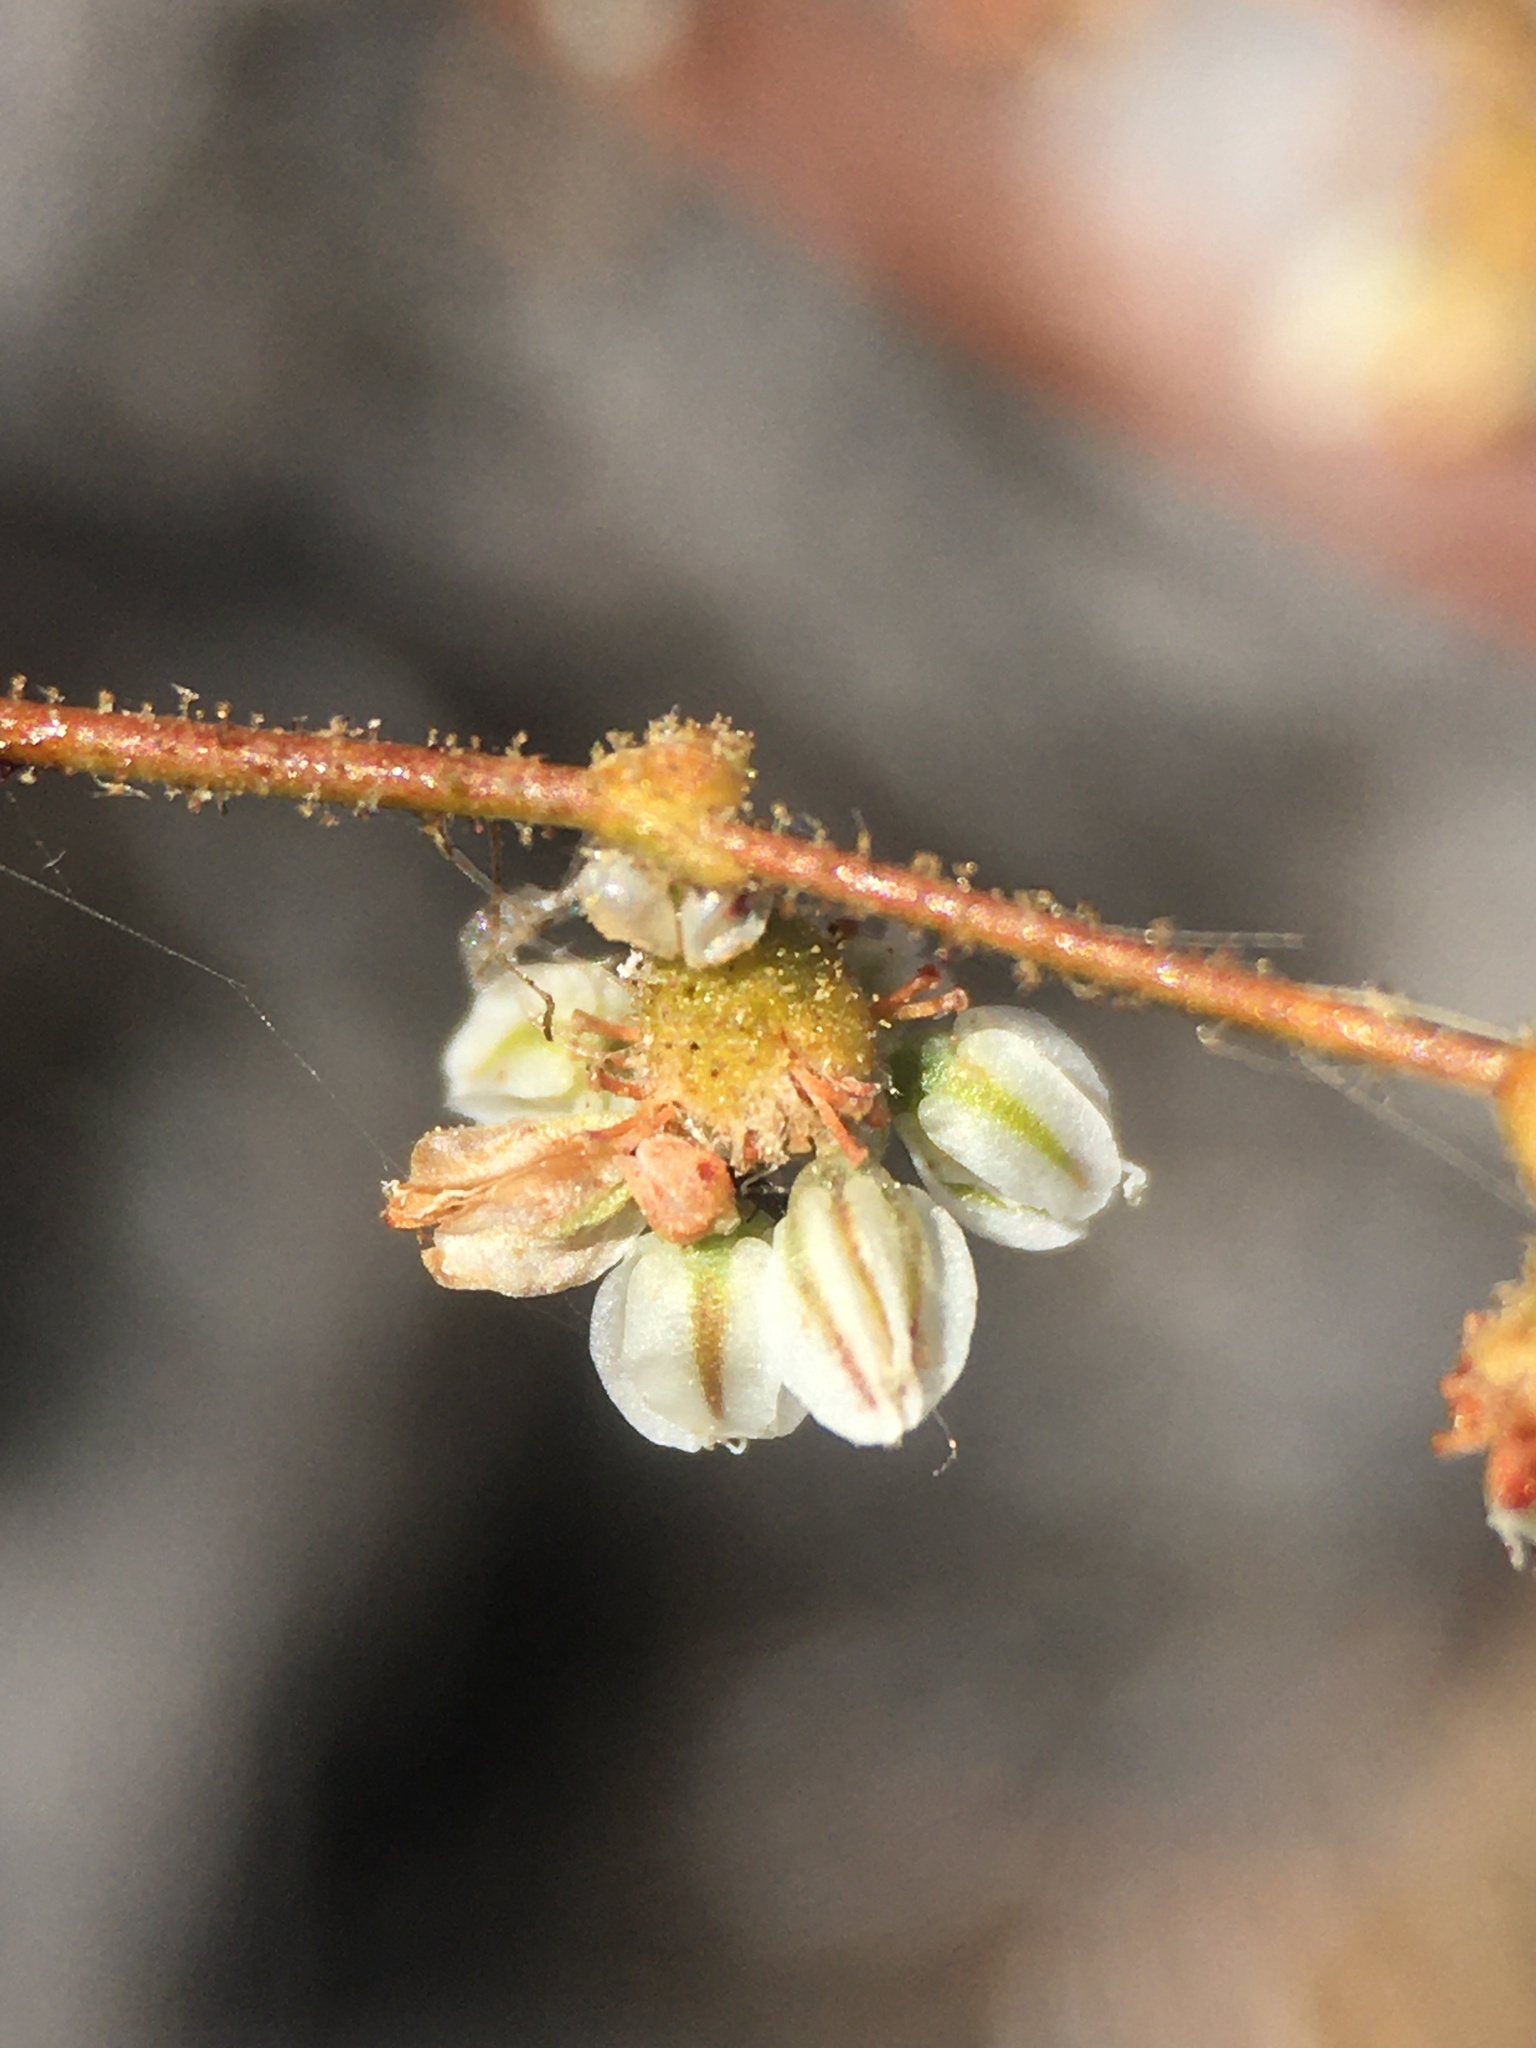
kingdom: Plantae
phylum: Tracheophyta
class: Magnoliopsida
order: Caryophyllales
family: Polygonaceae
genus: Eriogonum
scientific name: Eriogonum brachypodum
